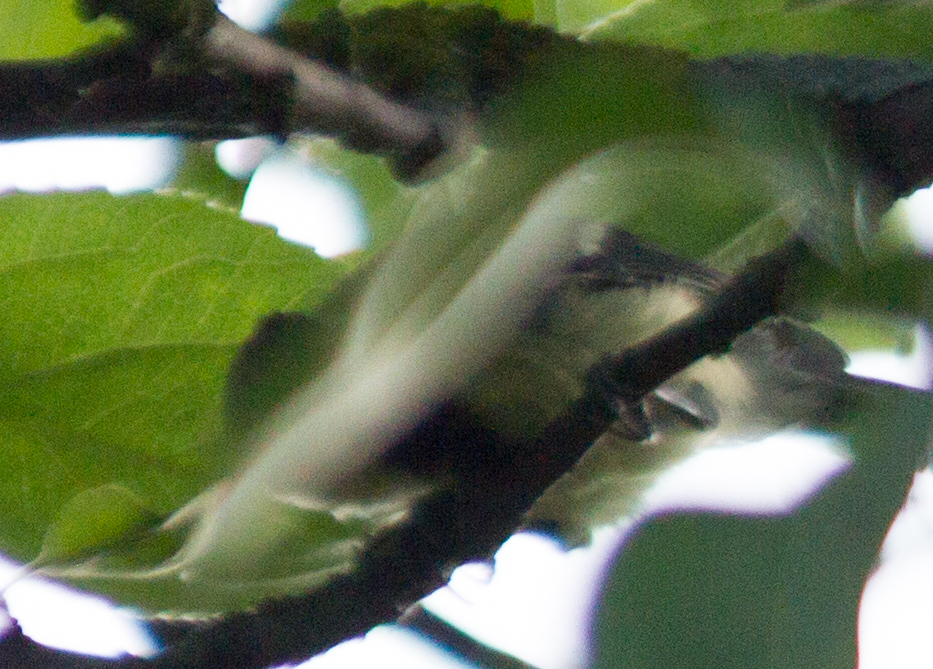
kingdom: Animalia
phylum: Chordata
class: Aves
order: Passeriformes
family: Paridae
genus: Parus
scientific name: Parus major
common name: Great tit
